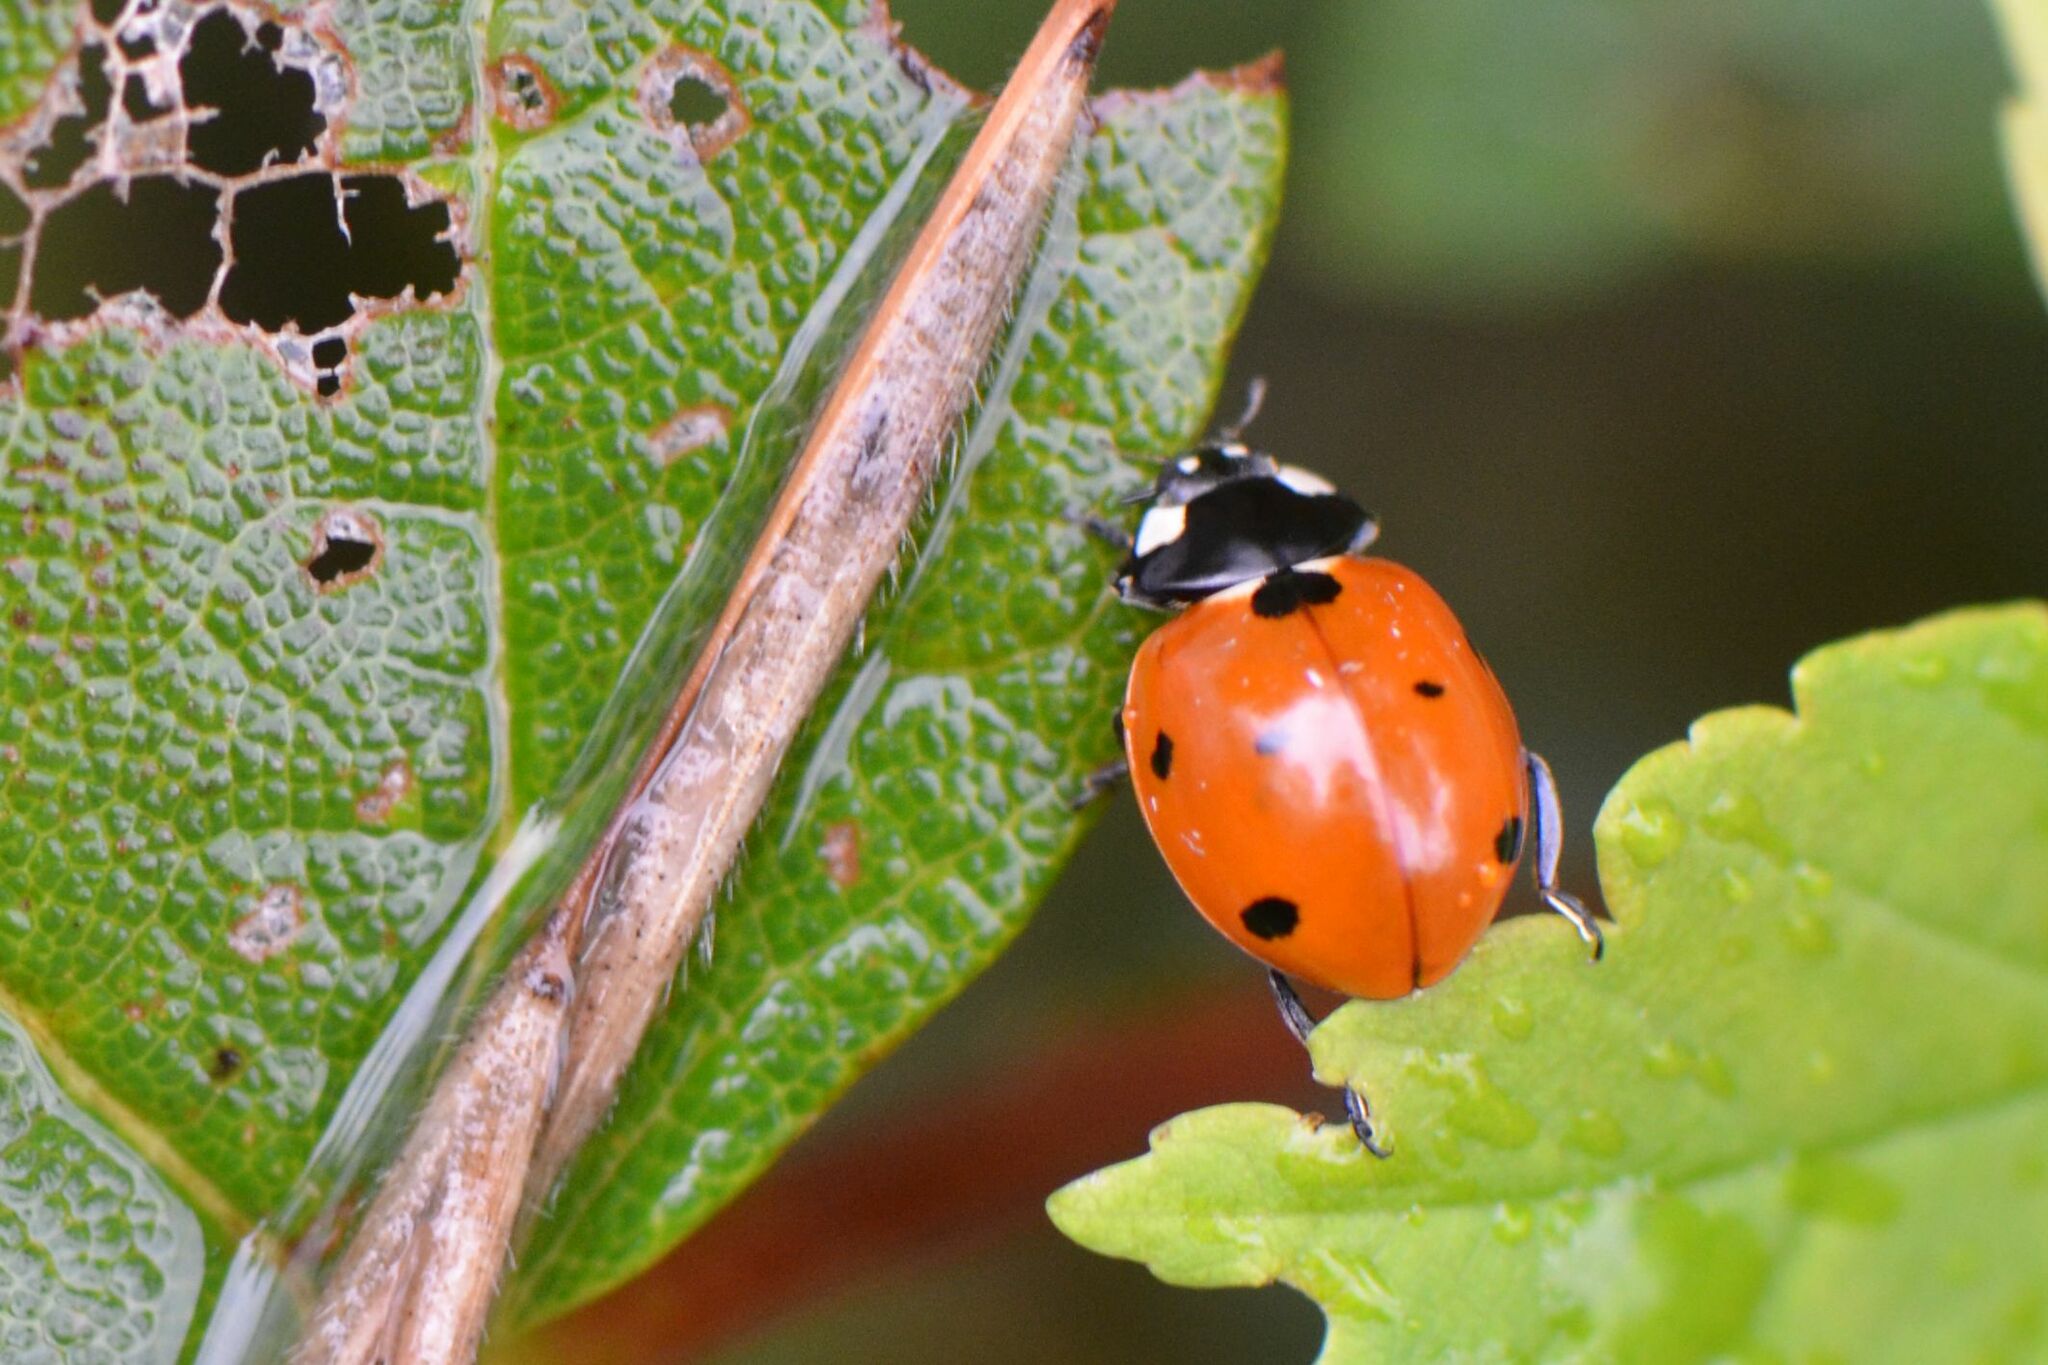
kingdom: Animalia
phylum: Arthropoda
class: Insecta
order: Coleoptera
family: Coccinellidae
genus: Coccinella
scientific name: Coccinella septempunctata
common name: Sevenspotted lady beetle
